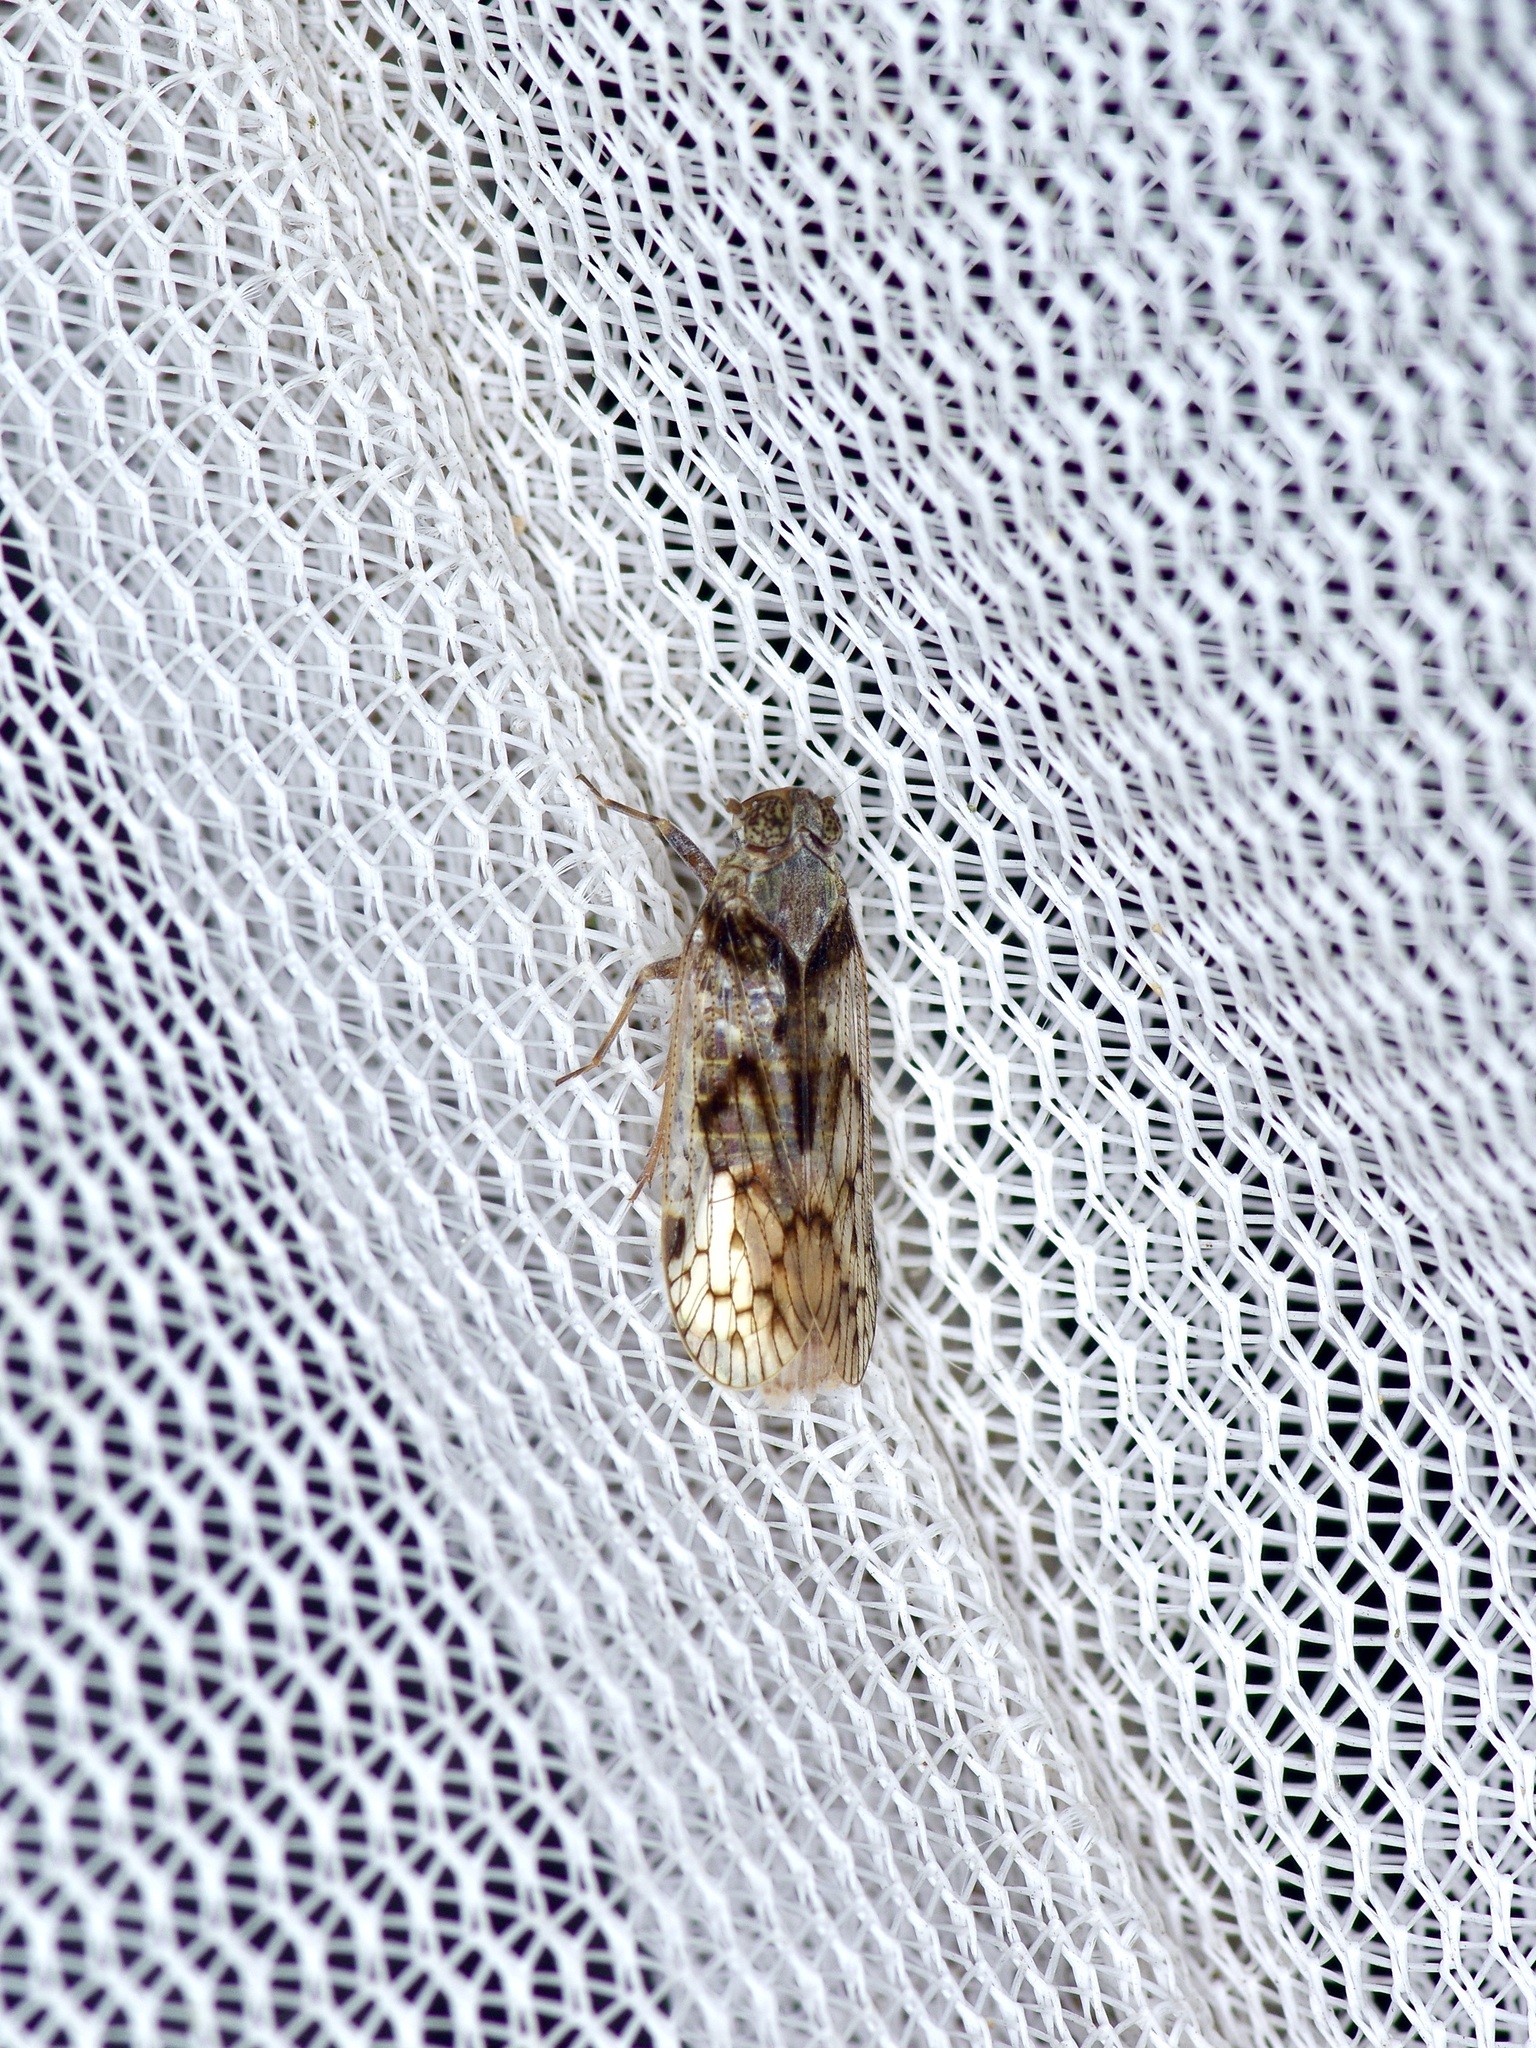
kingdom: Animalia
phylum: Arthropoda
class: Insecta
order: Hemiptera
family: Cixiidae
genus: Melanoliarus
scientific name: Melanoliarus aridus
